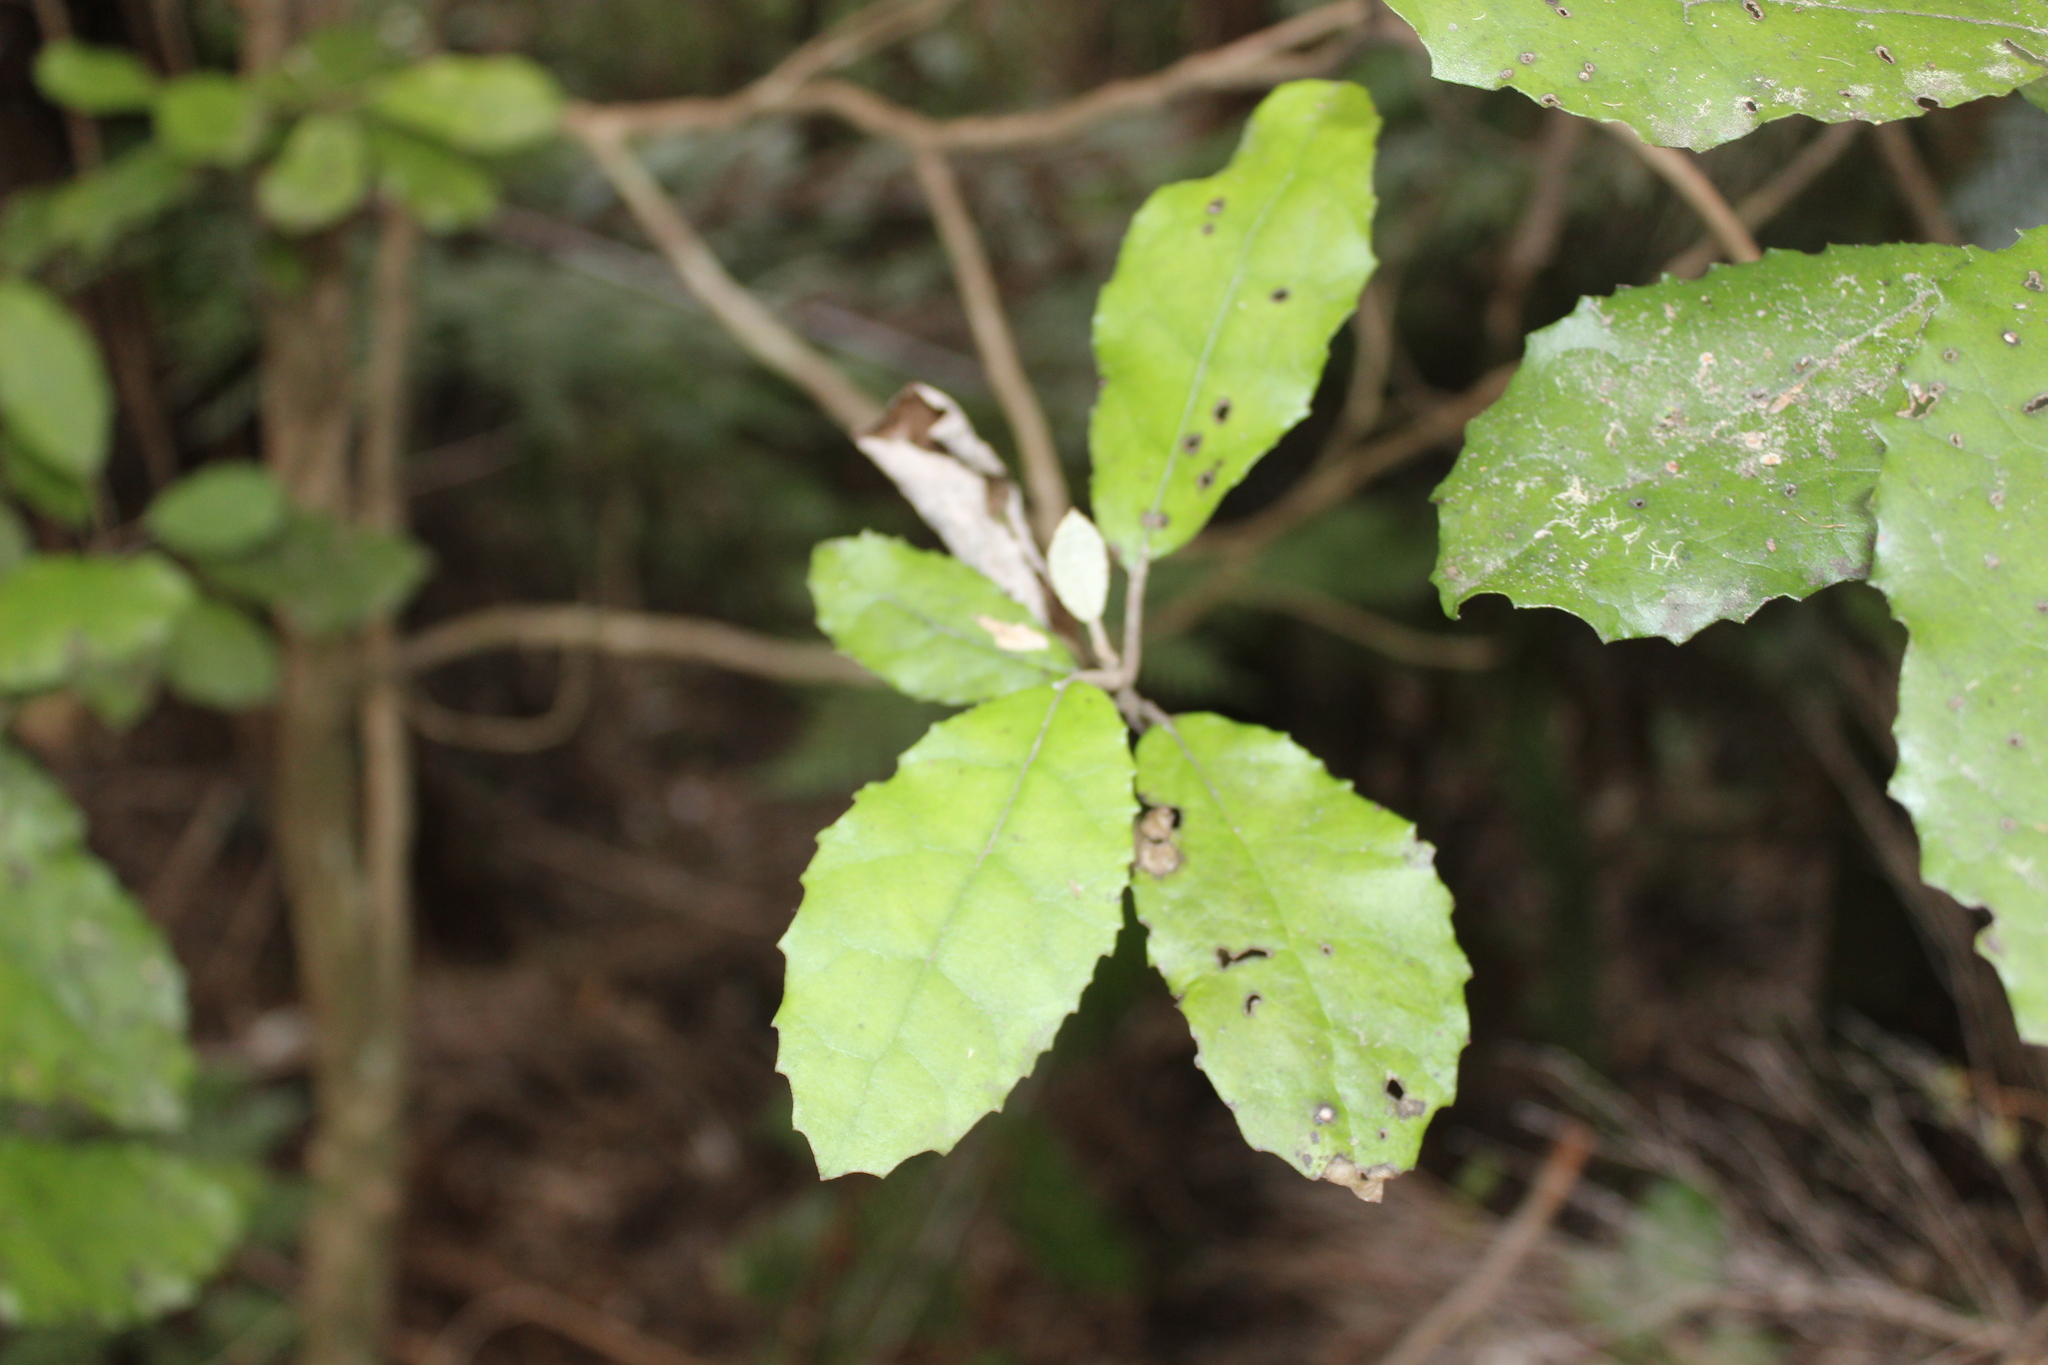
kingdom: Plantae
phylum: Tracheophyta
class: Magnoliopsida
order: Asterales
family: Asteraceae
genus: Olearia
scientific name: Olearia rani
